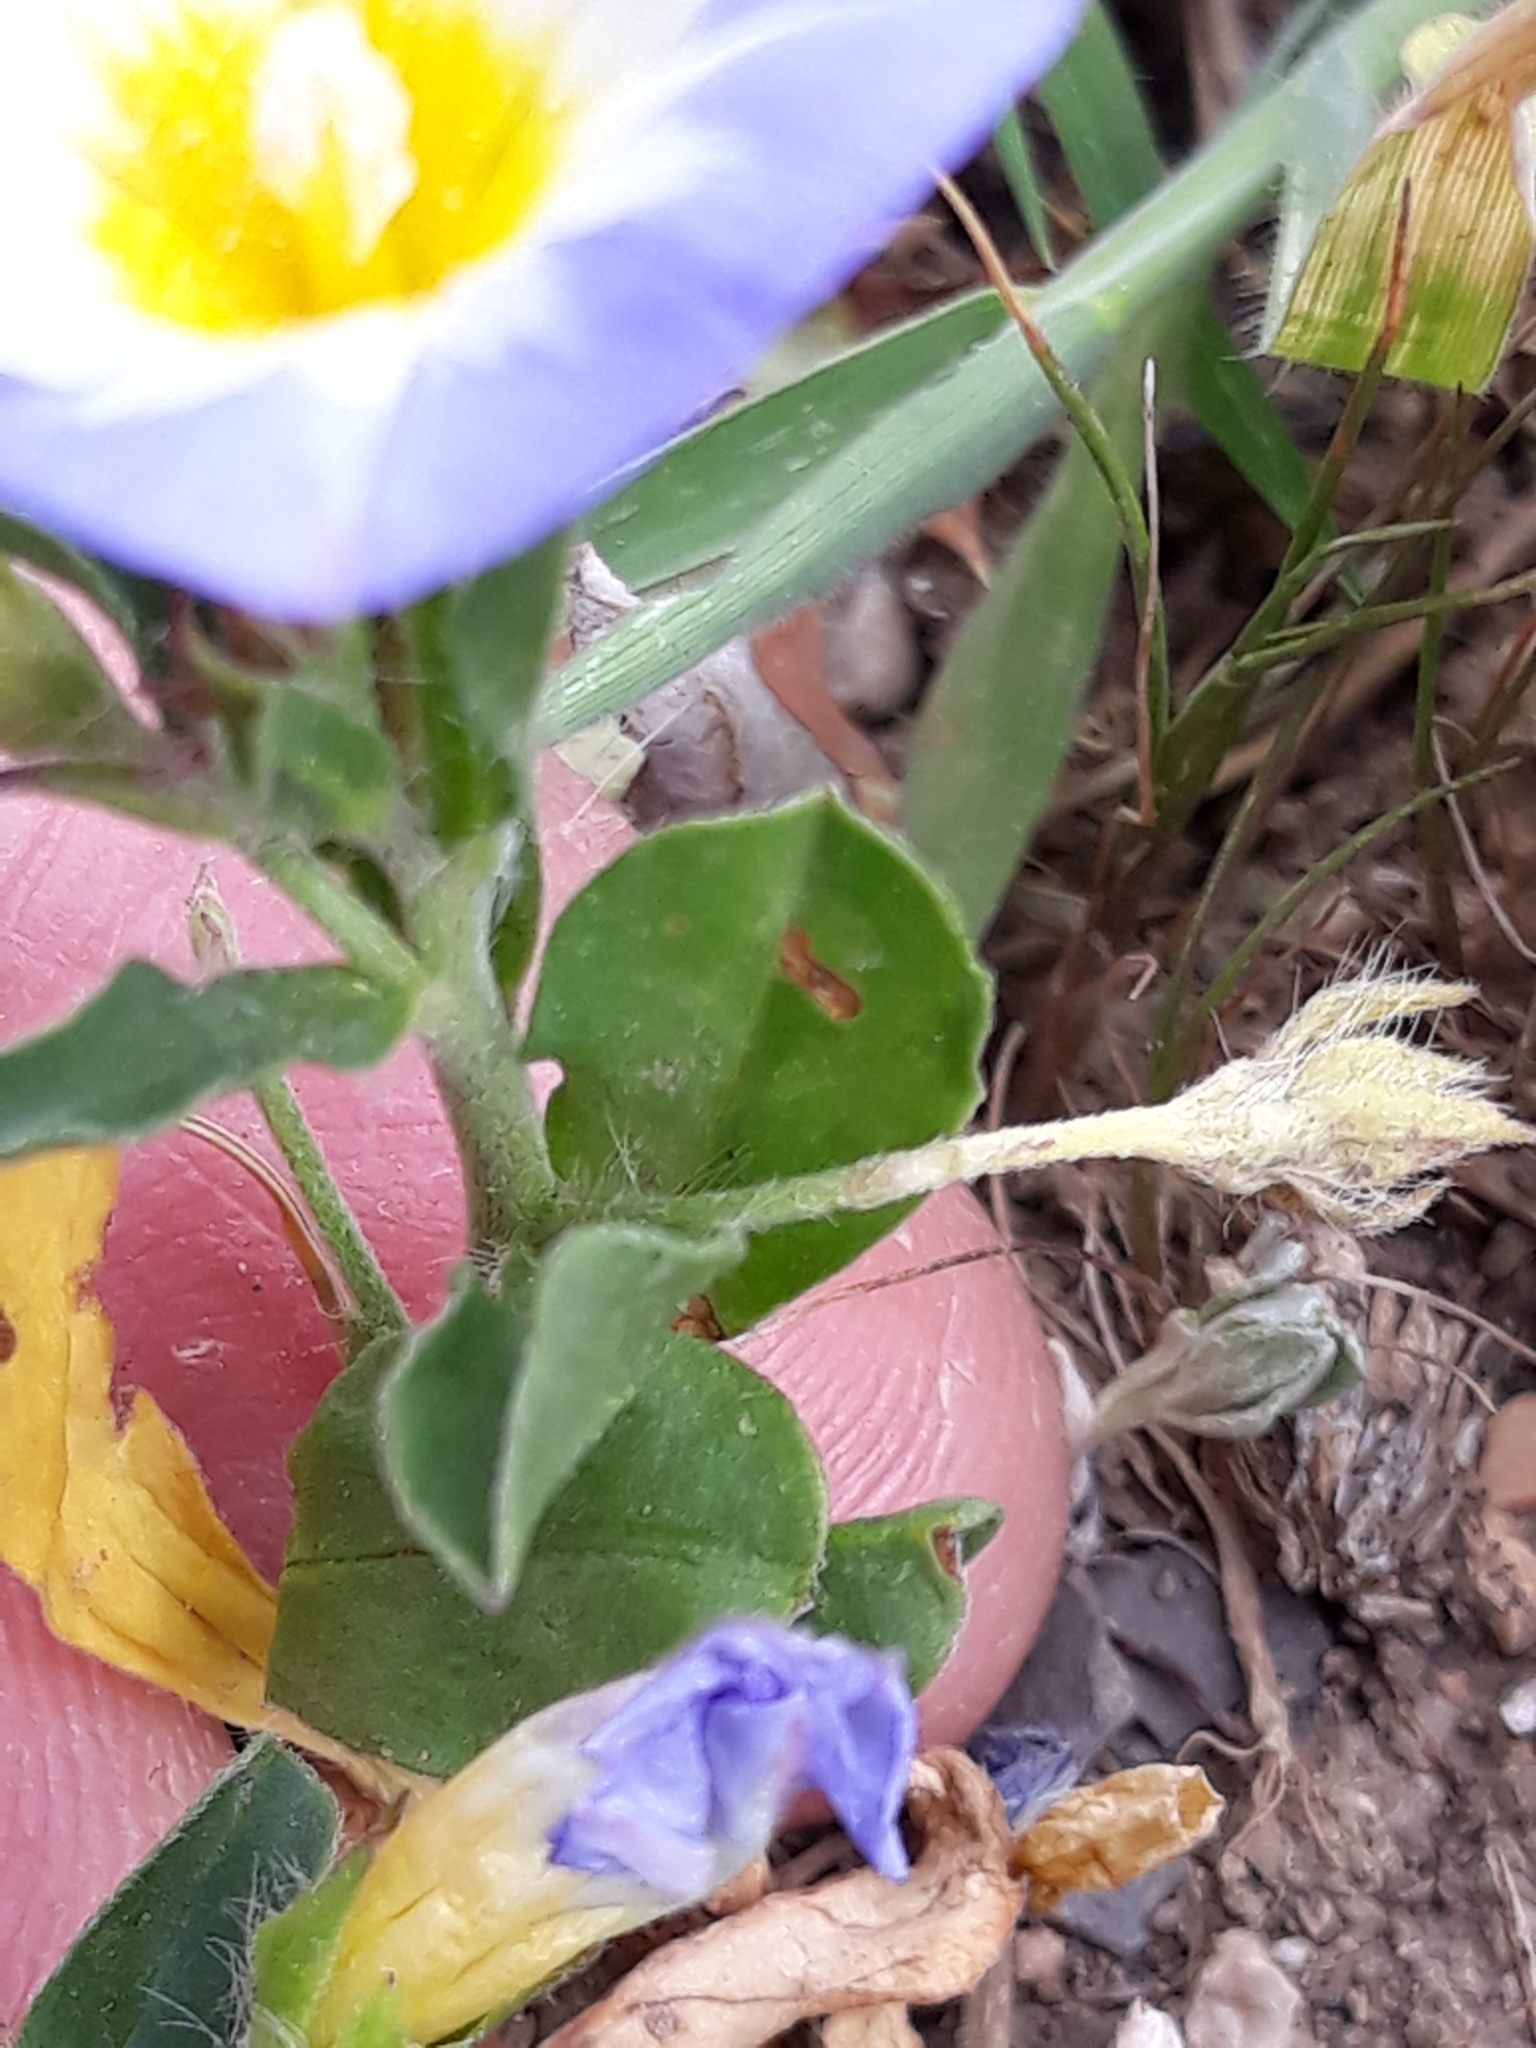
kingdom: Plantae
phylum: Tracheophyta
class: Magnoliopsida
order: Solanales
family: Convolvulaceae
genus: Convolvulus
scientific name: Convolvulus tricolor
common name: Dwarf morning-glory
